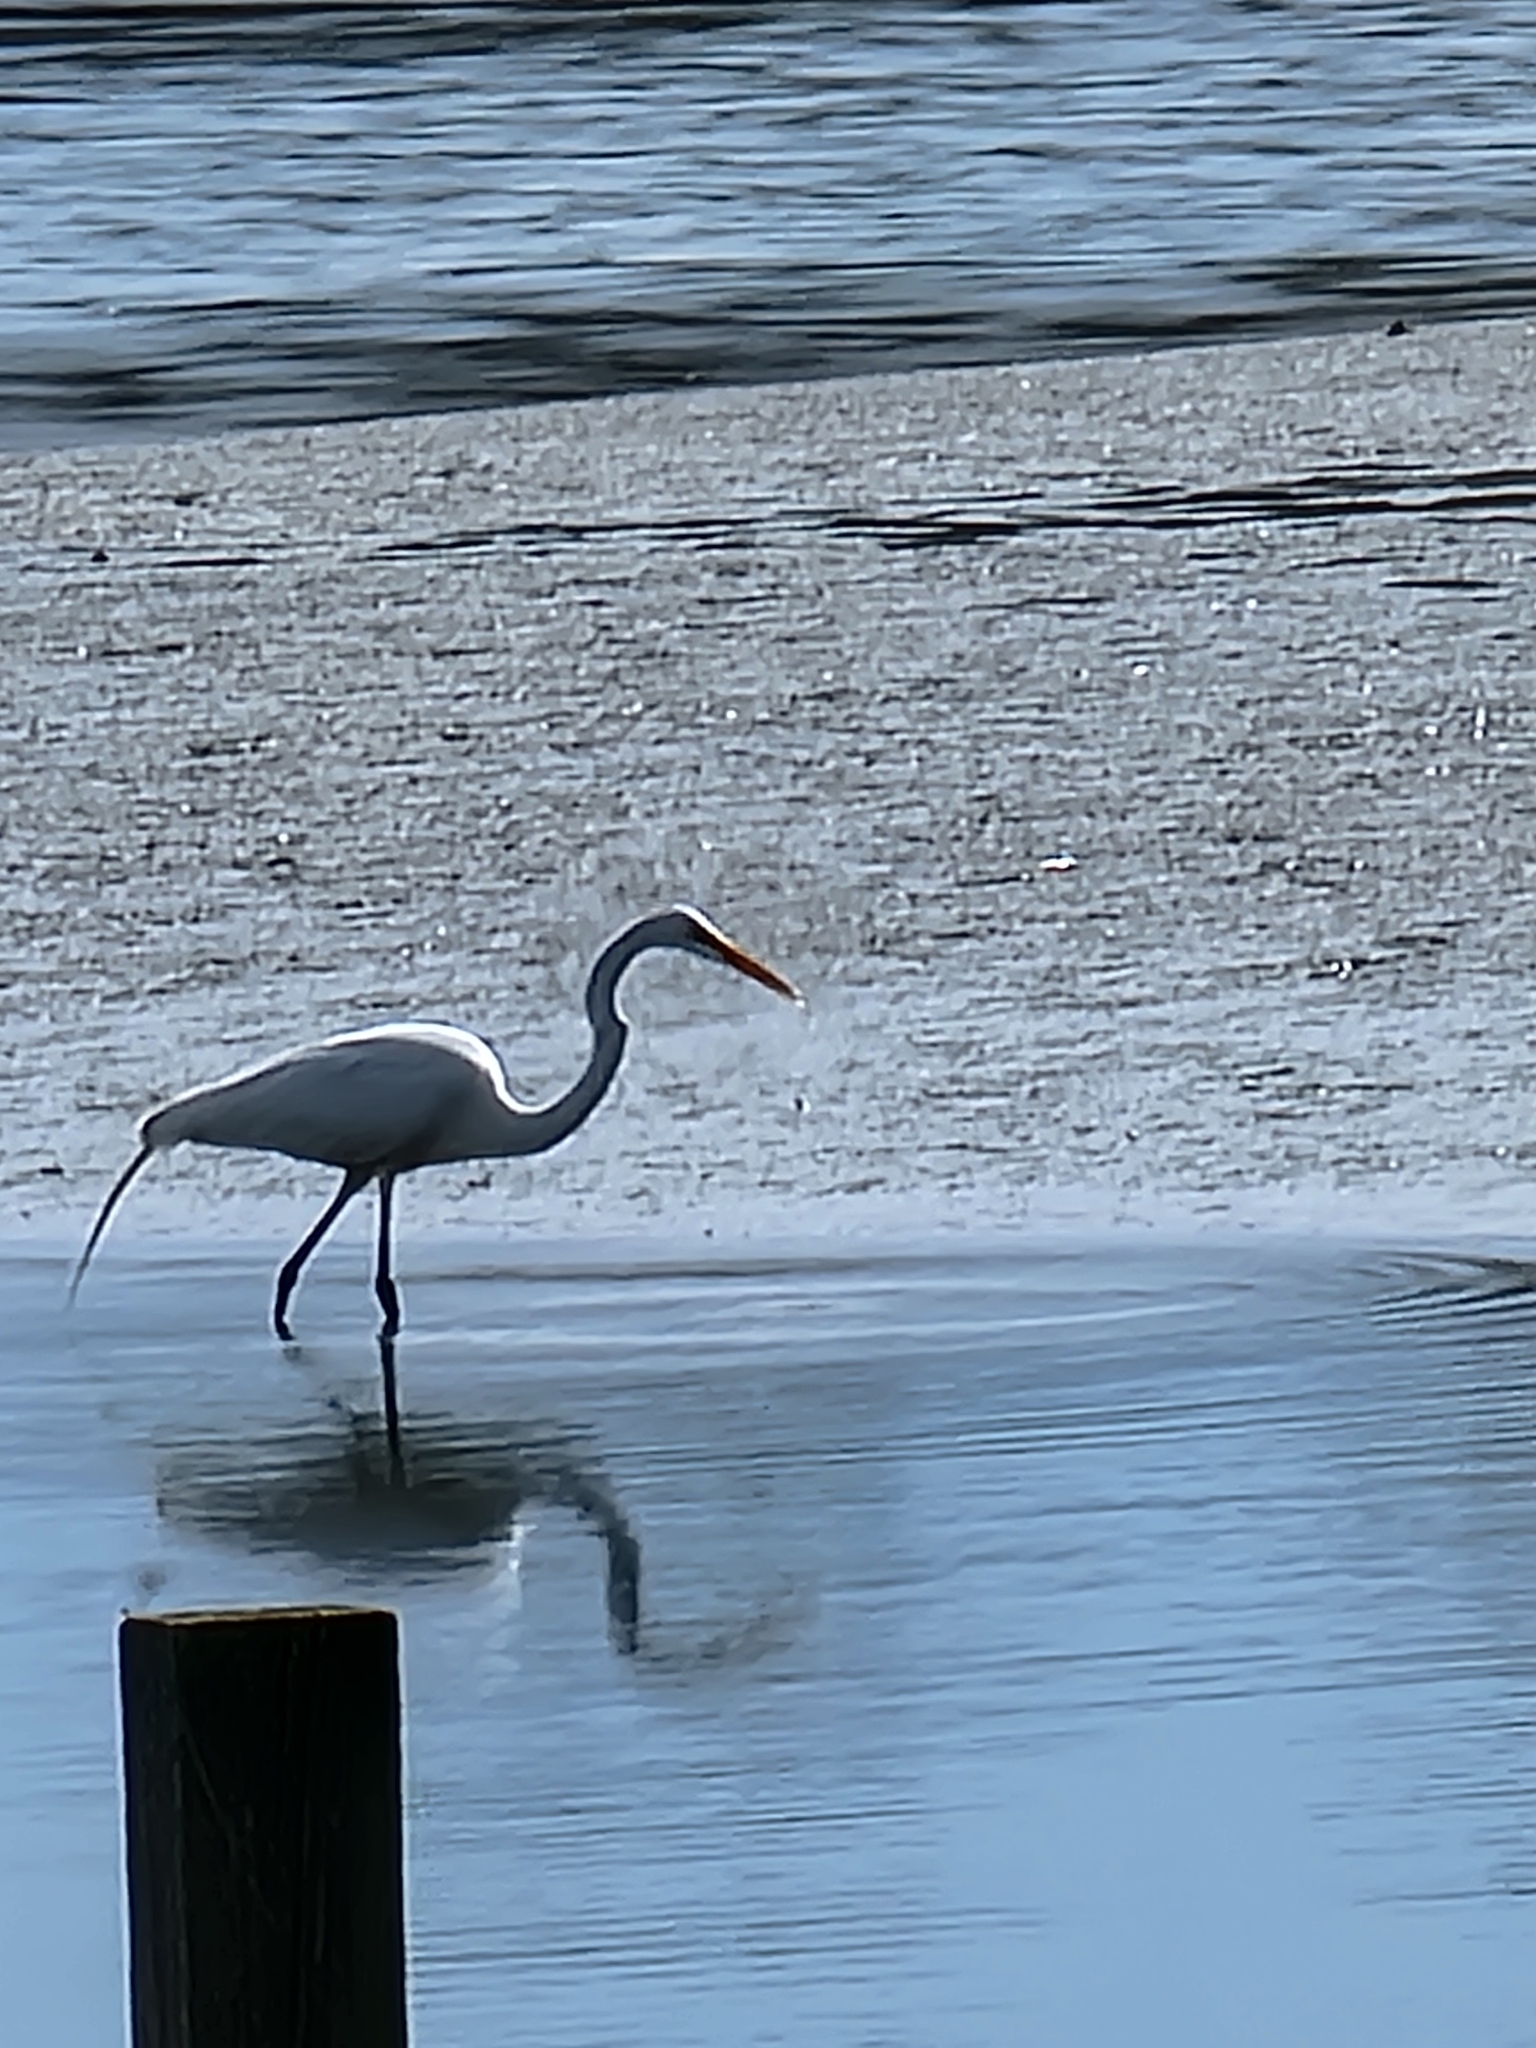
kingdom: Animalia
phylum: Chordata
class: Aves
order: Pelecaniformes
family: Ardeidae
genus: Ardea
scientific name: Ardea alba
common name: Great egret
